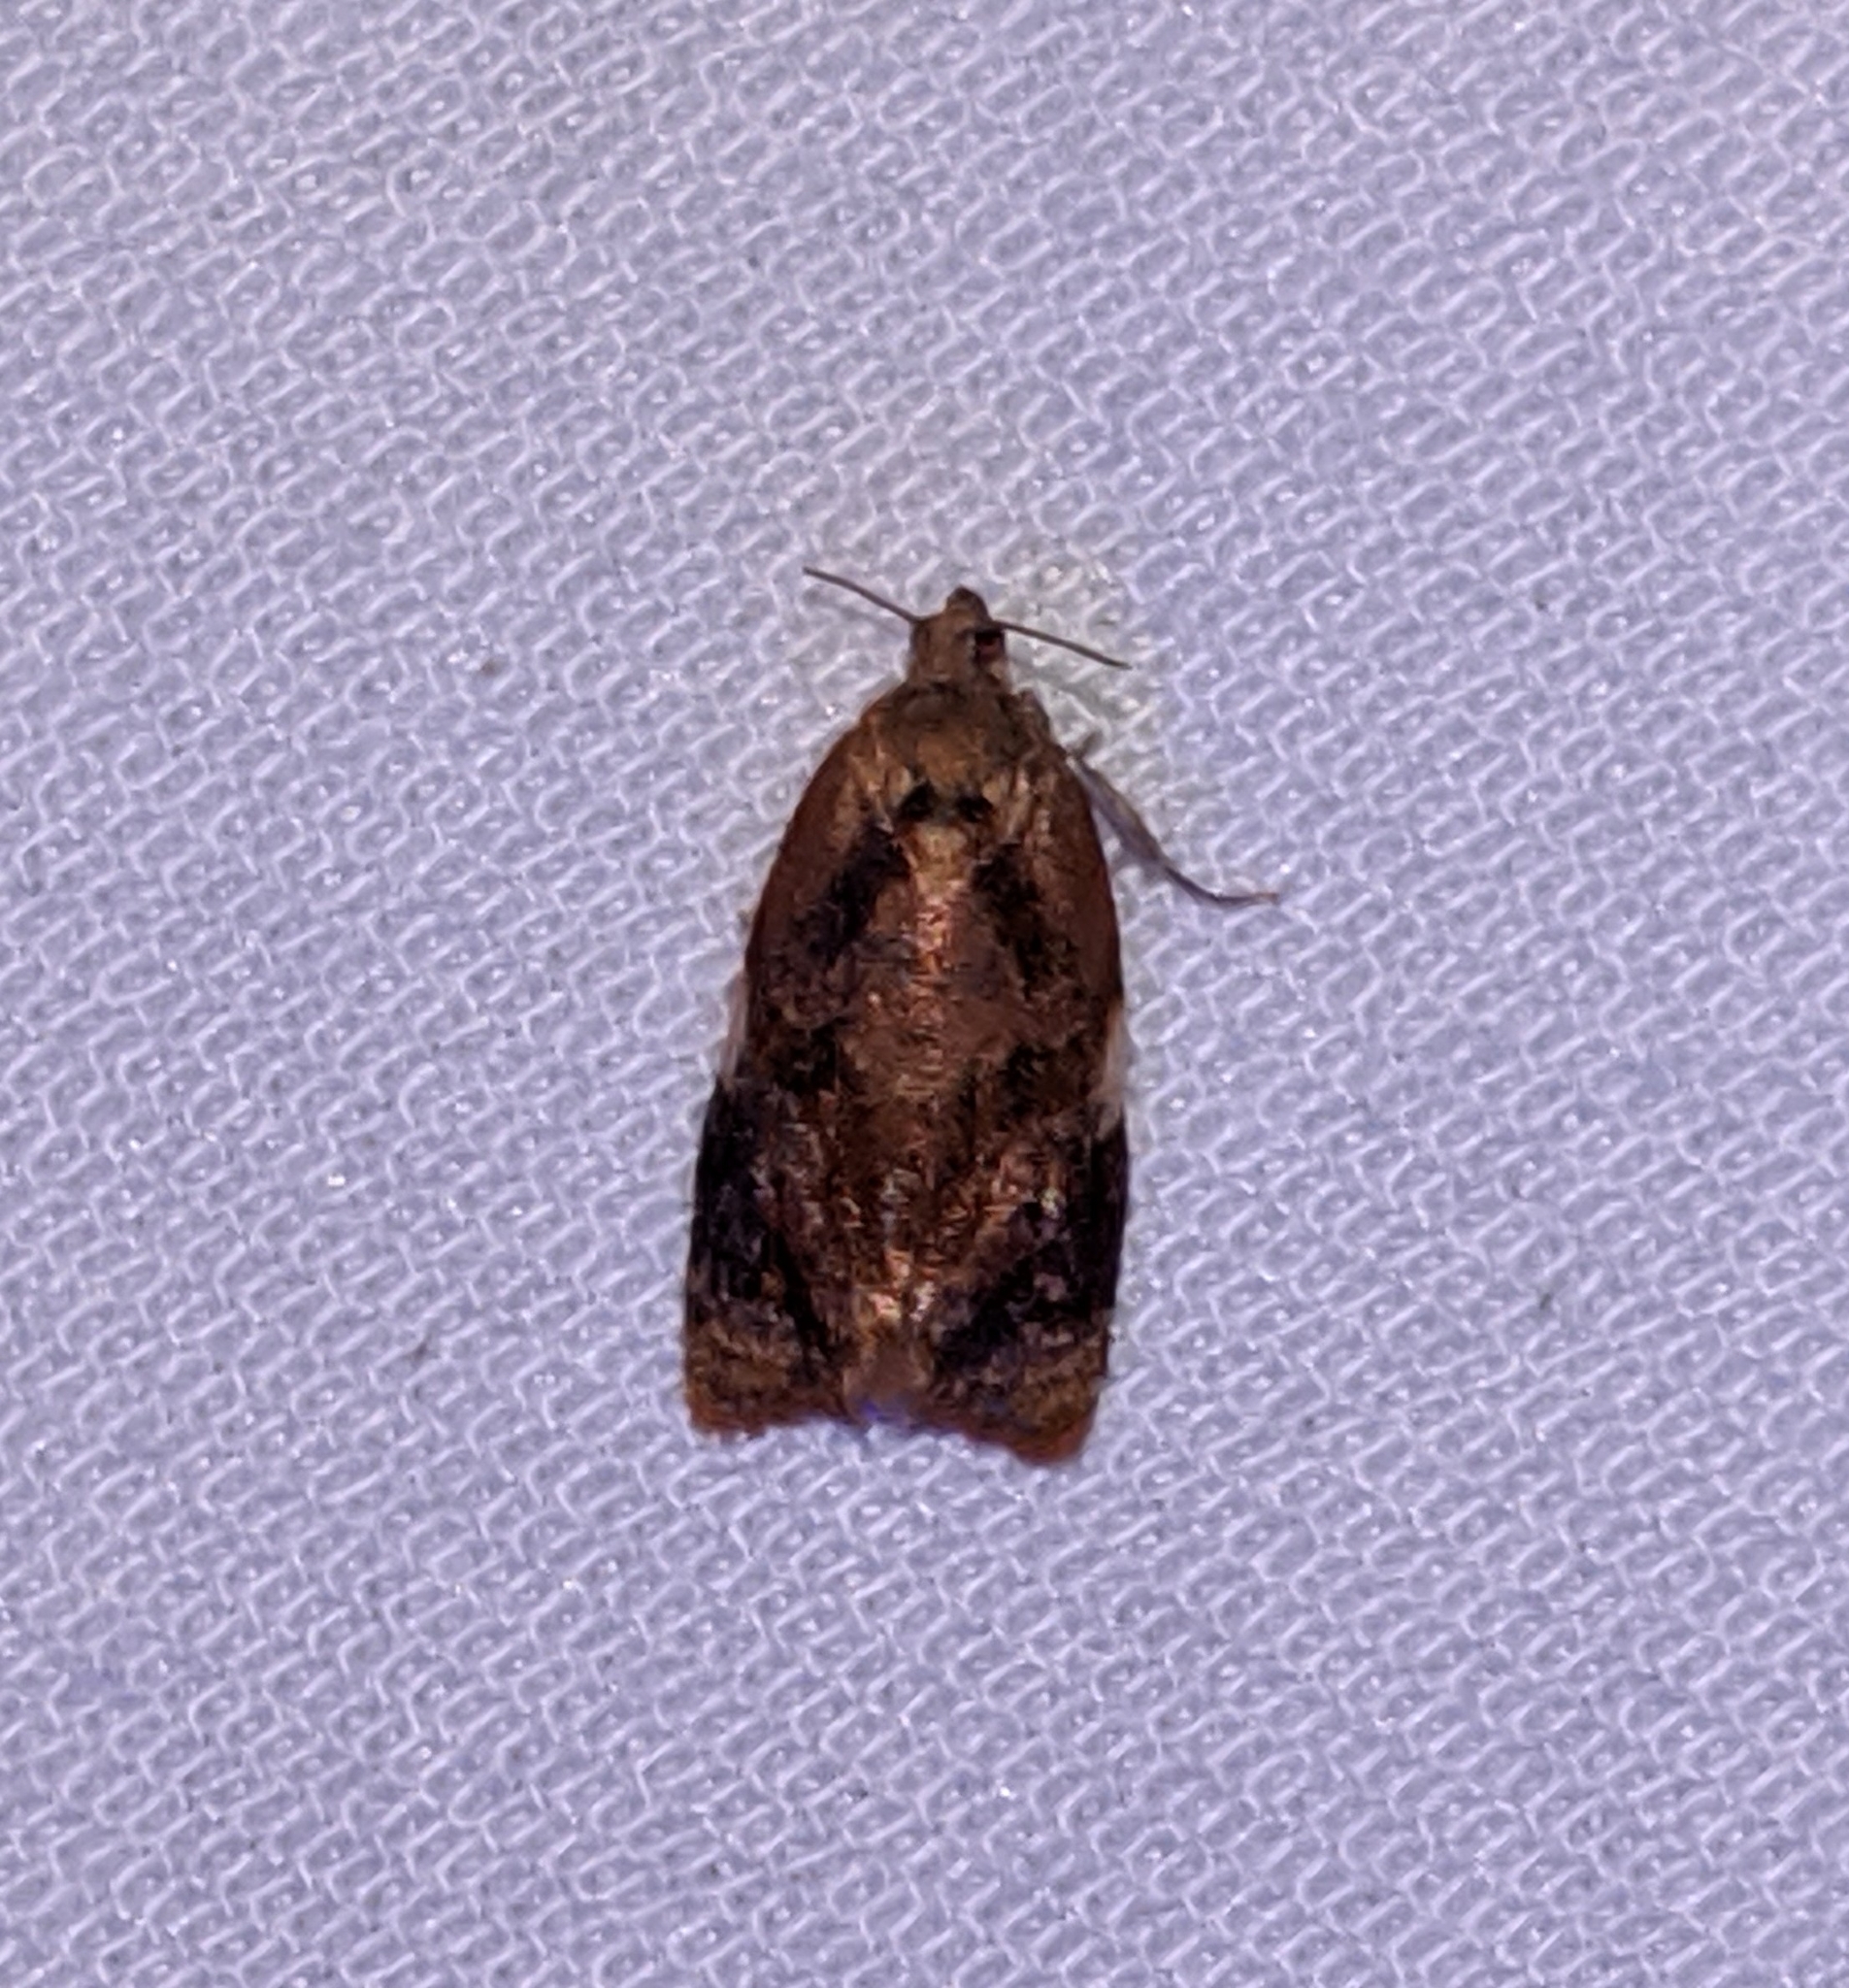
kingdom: Animalia
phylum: Arthropoda
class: Insecta
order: Lepidoptera
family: Tortricidae
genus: Ditula
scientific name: Ditula angustiorana
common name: Red-barred tortrix
